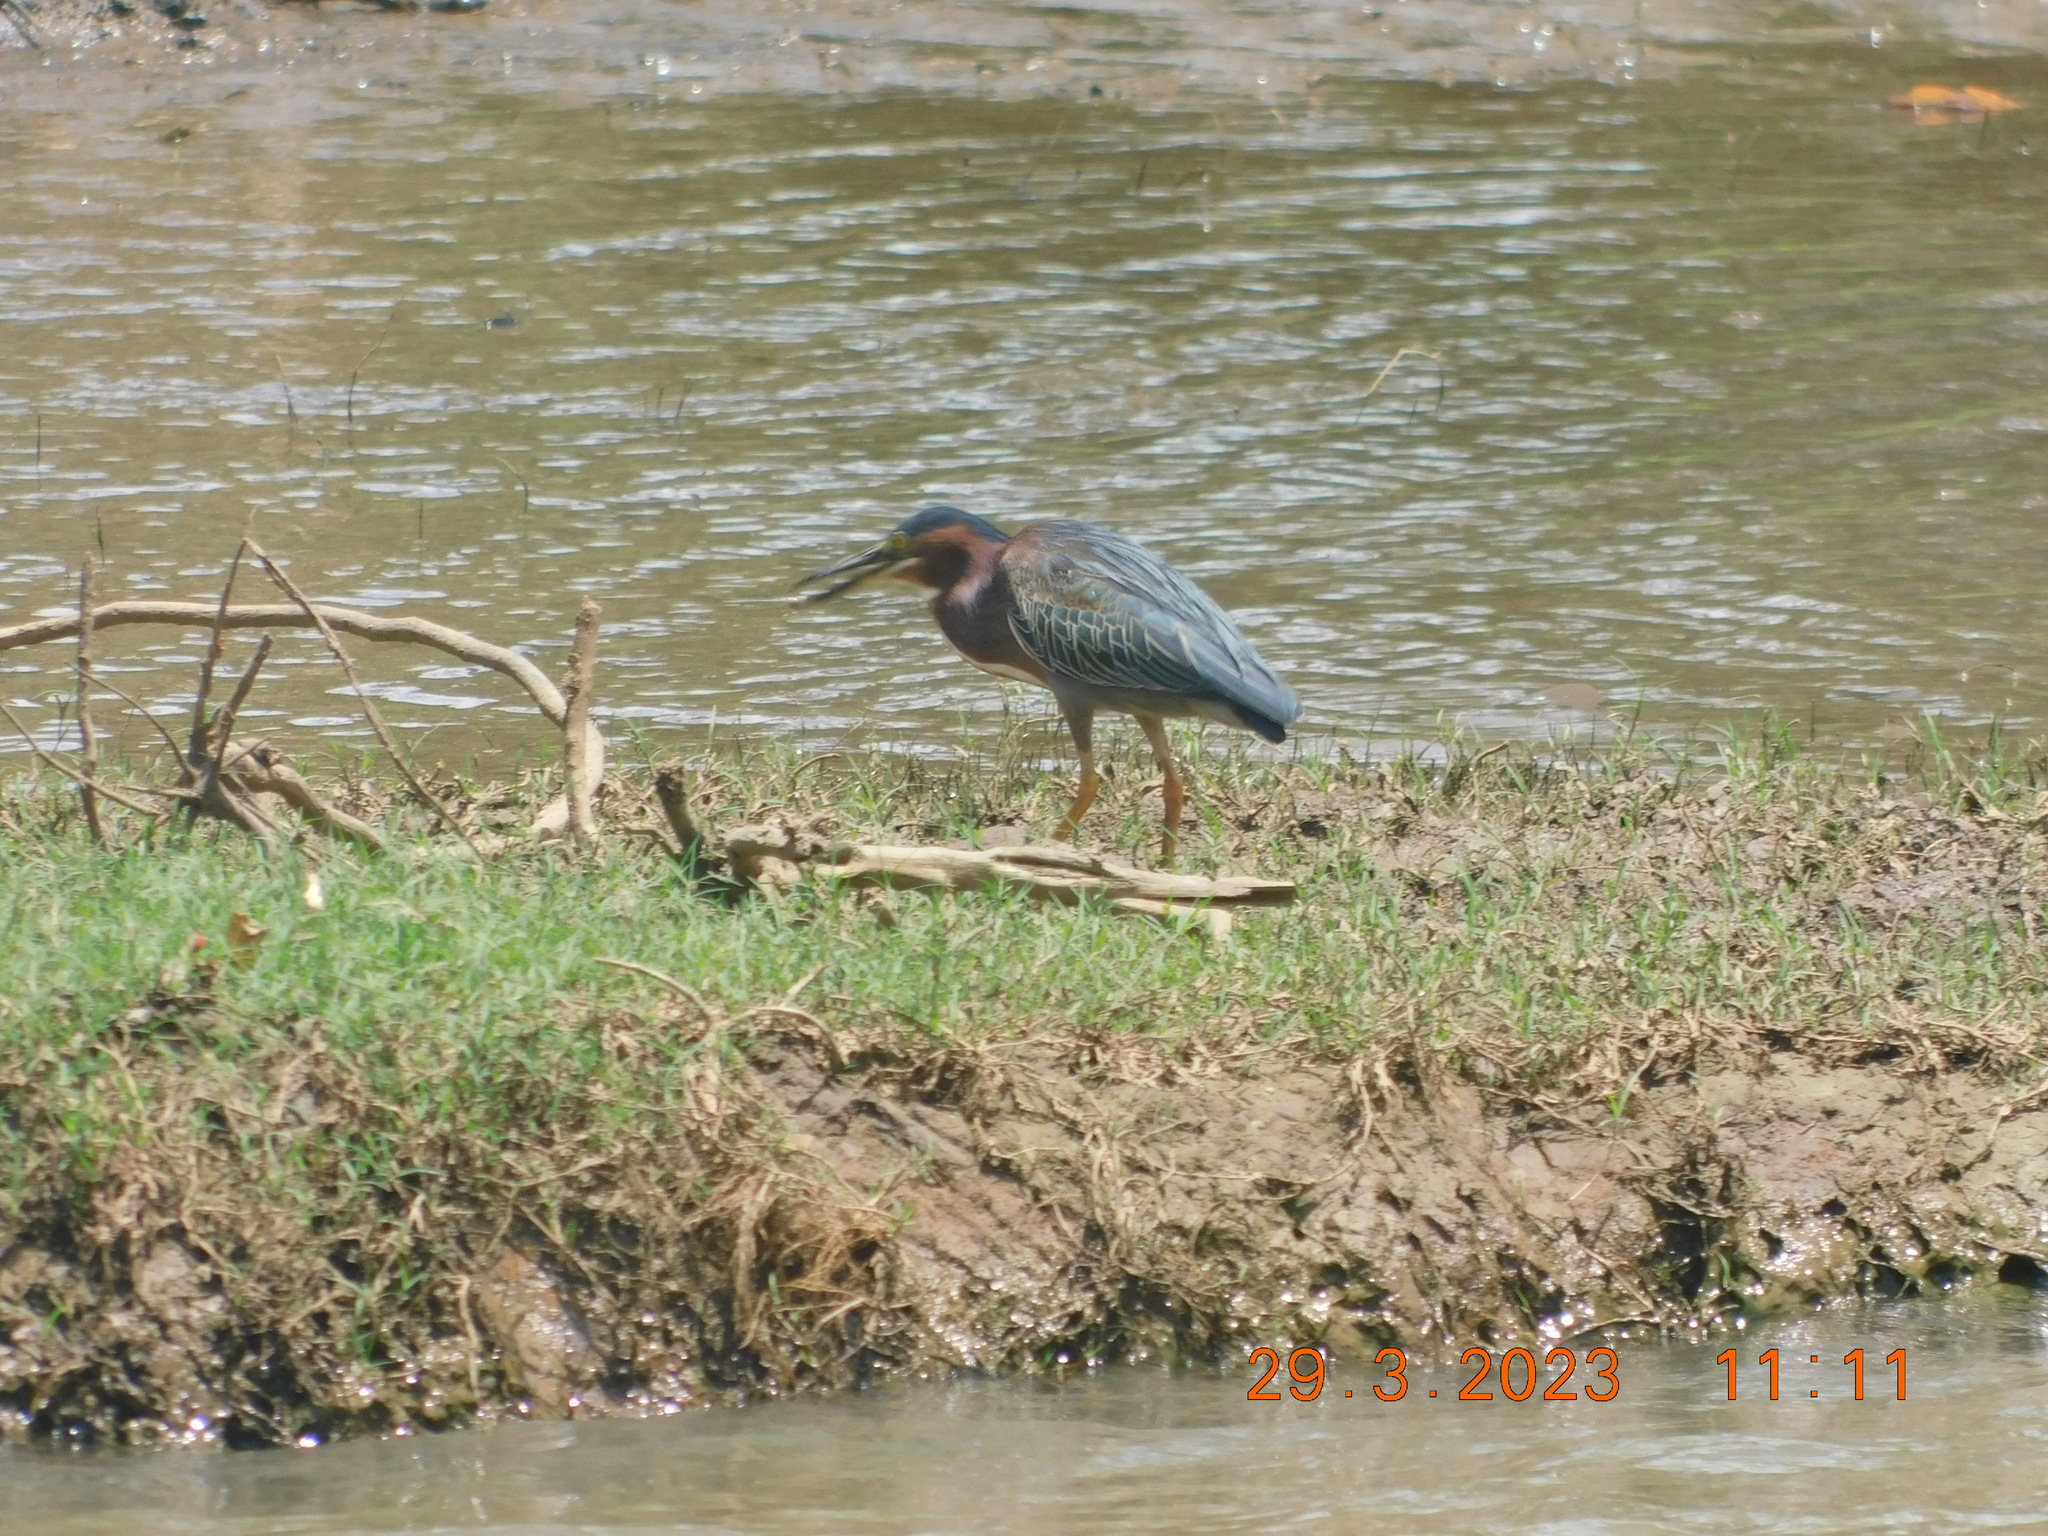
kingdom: Animalia
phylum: Chordata
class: Aves
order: Pelecaniformes
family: Ardeidae
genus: Butorides
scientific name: Butorides virescens
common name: Green heron
